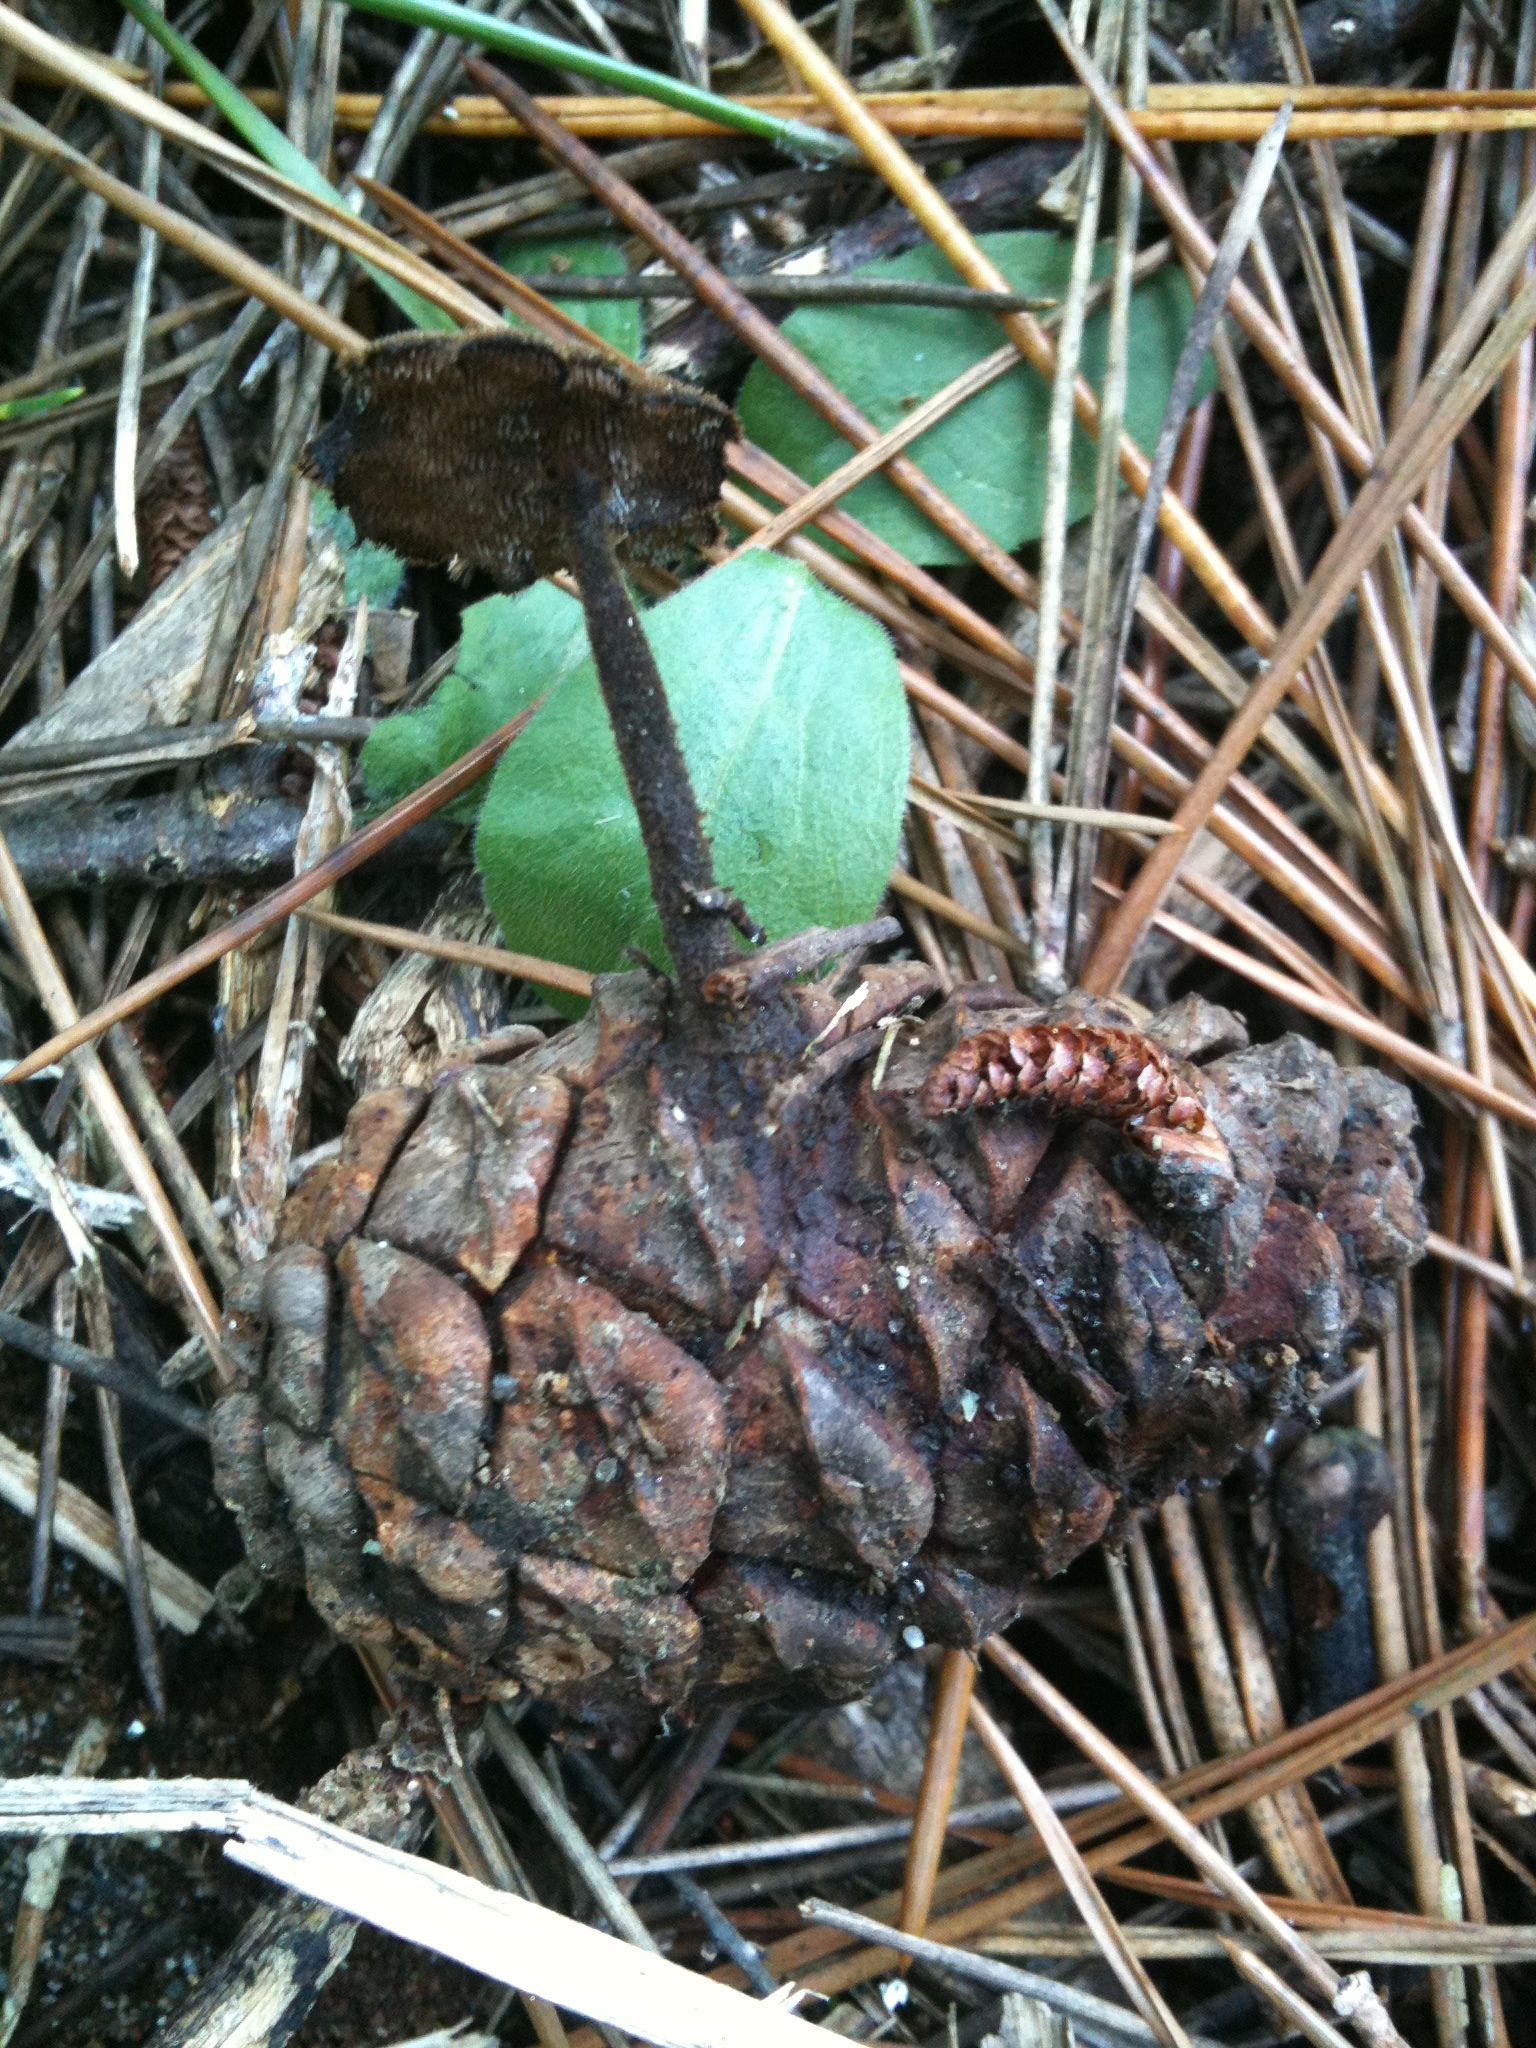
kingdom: Fungi
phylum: Basidiomycota
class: Agaricomycetes
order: Russulales
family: Auriscalpiaceae
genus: Auriscalpium
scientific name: Auriscalpium vulgare
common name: Earpick fungus
